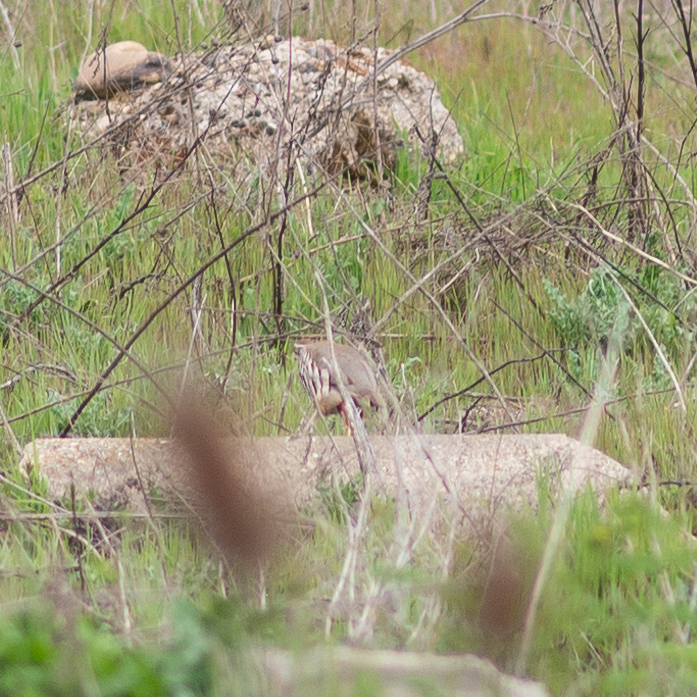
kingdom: Animalia
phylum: Chordata
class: Aves
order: Galliformes
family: Phasianidae
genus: Alectoris
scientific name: Alectoris rufa
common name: Red-legged partridge
